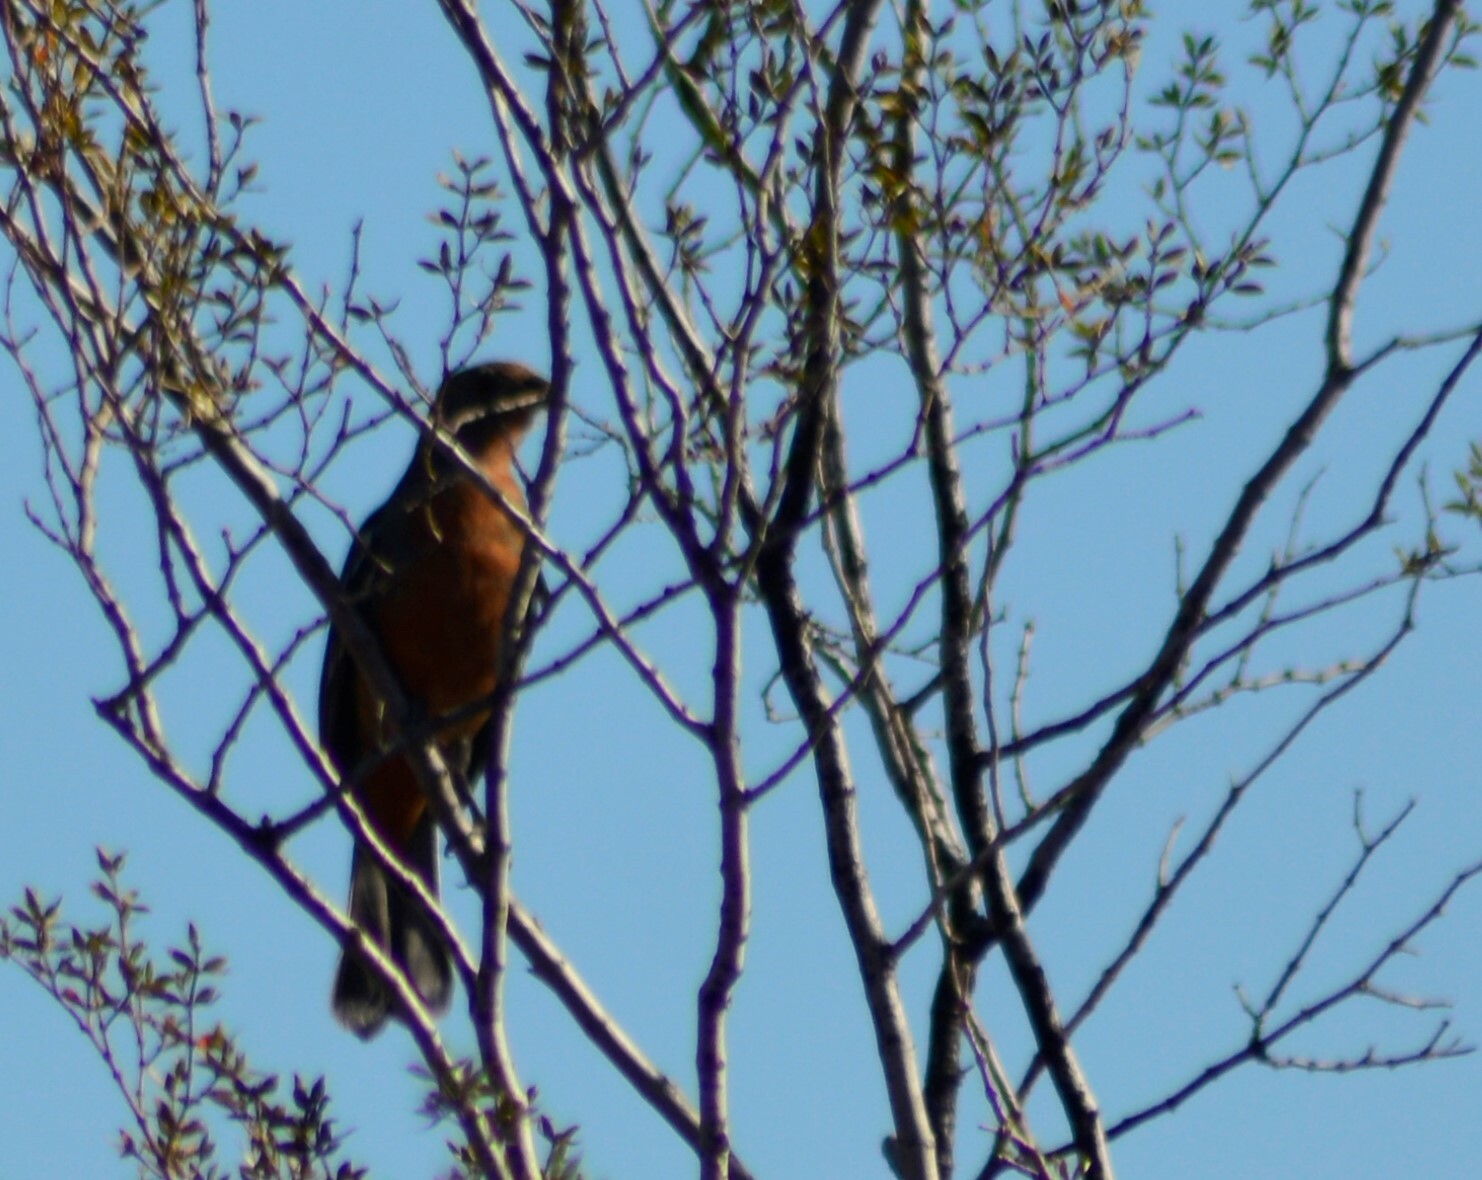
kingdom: Animalia
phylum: Chordata
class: Aves
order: Passeriformes
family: Cotingidae
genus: Phytotoma
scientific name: Phytotoma rutila
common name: White-tipped plantcutter
